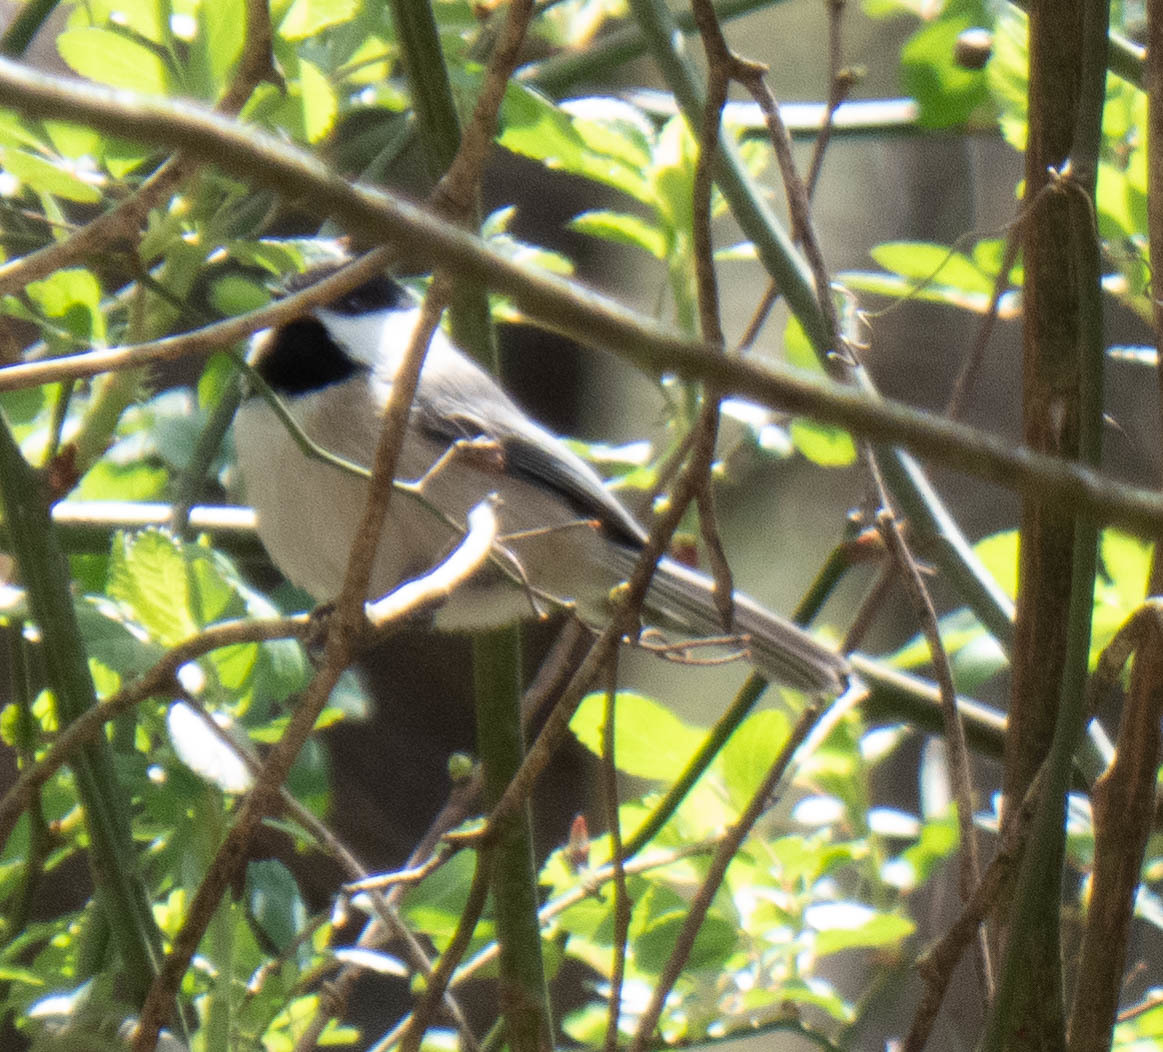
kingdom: Animalia
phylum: Chordata
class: Aves
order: Passeriformes
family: Paridae
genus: Poecile
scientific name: Poecile carolinensis
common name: Carolina chickadee
